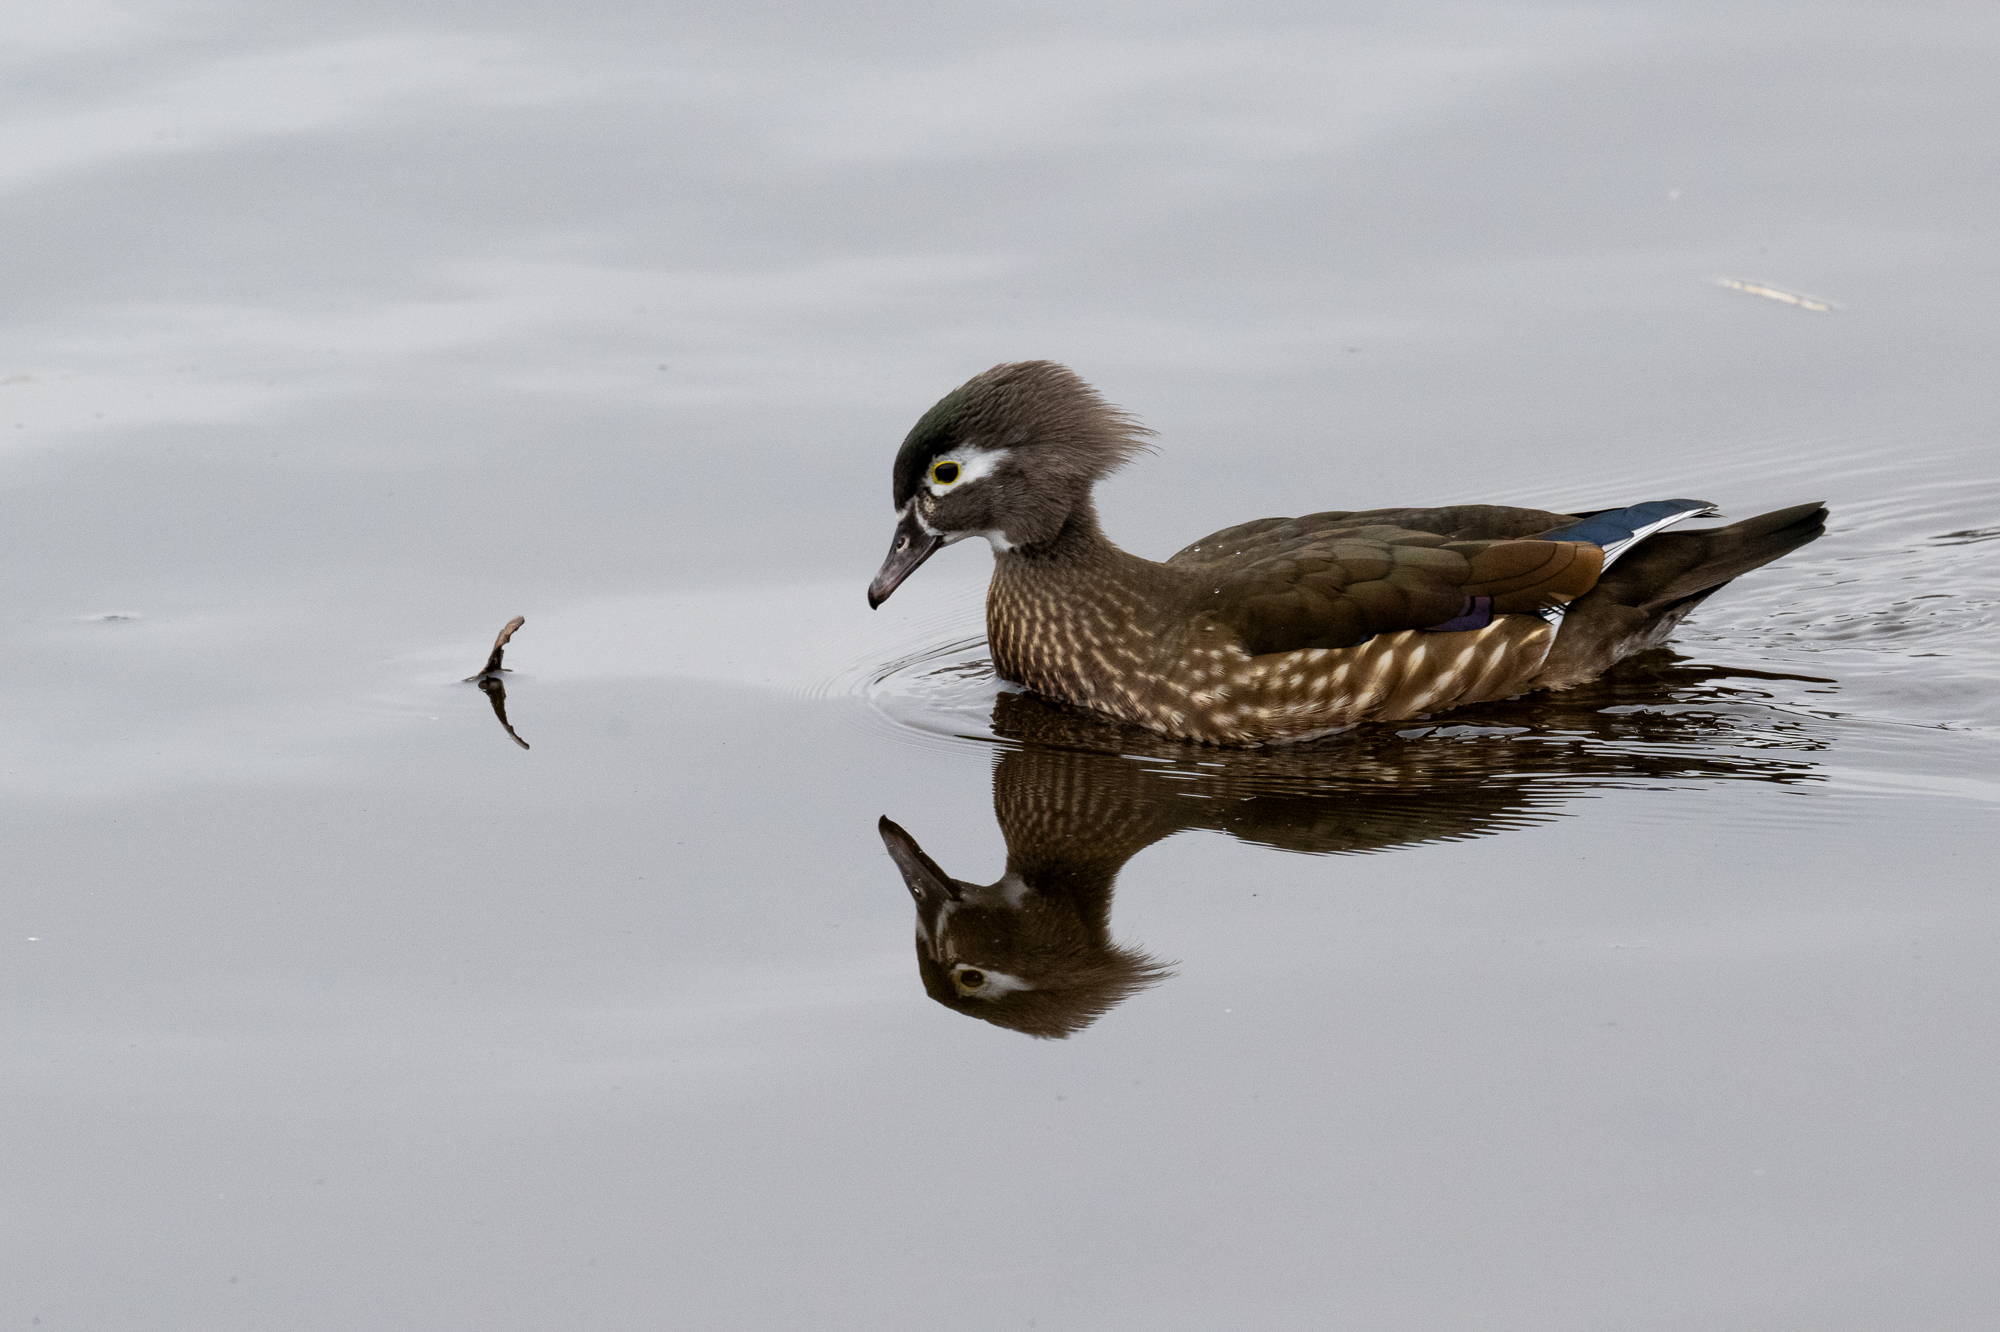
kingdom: Animalia
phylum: Chordata
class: Aves
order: Anseriformes
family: Anatidae
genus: Aix
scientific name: Aix sponsa
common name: Wood duck
